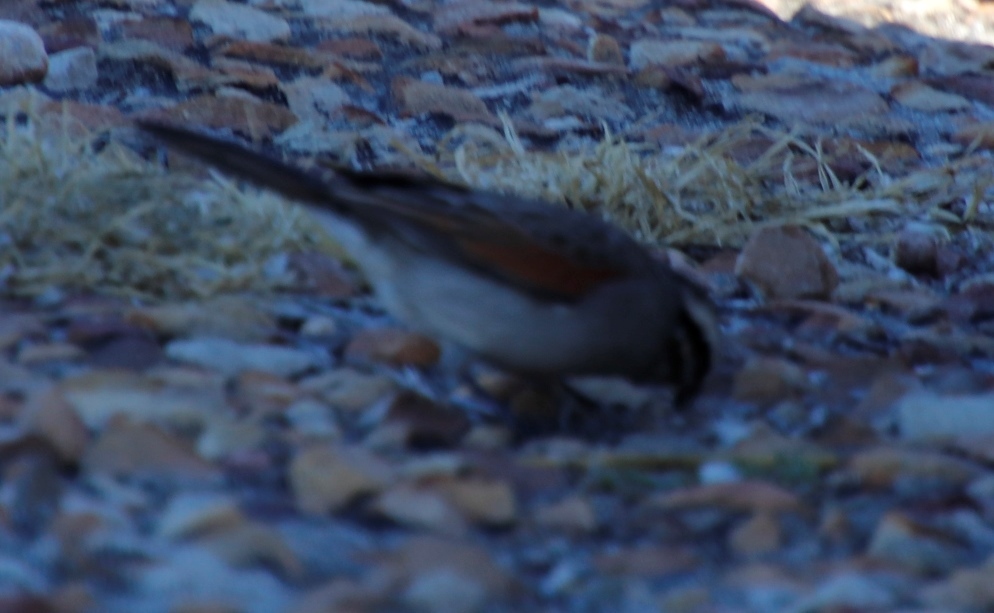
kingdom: Animalia
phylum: Chordata
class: Aves
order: Passeriformes
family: Emberizidae
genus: Emberiza
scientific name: Emberiza capensis
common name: Cape bunting
